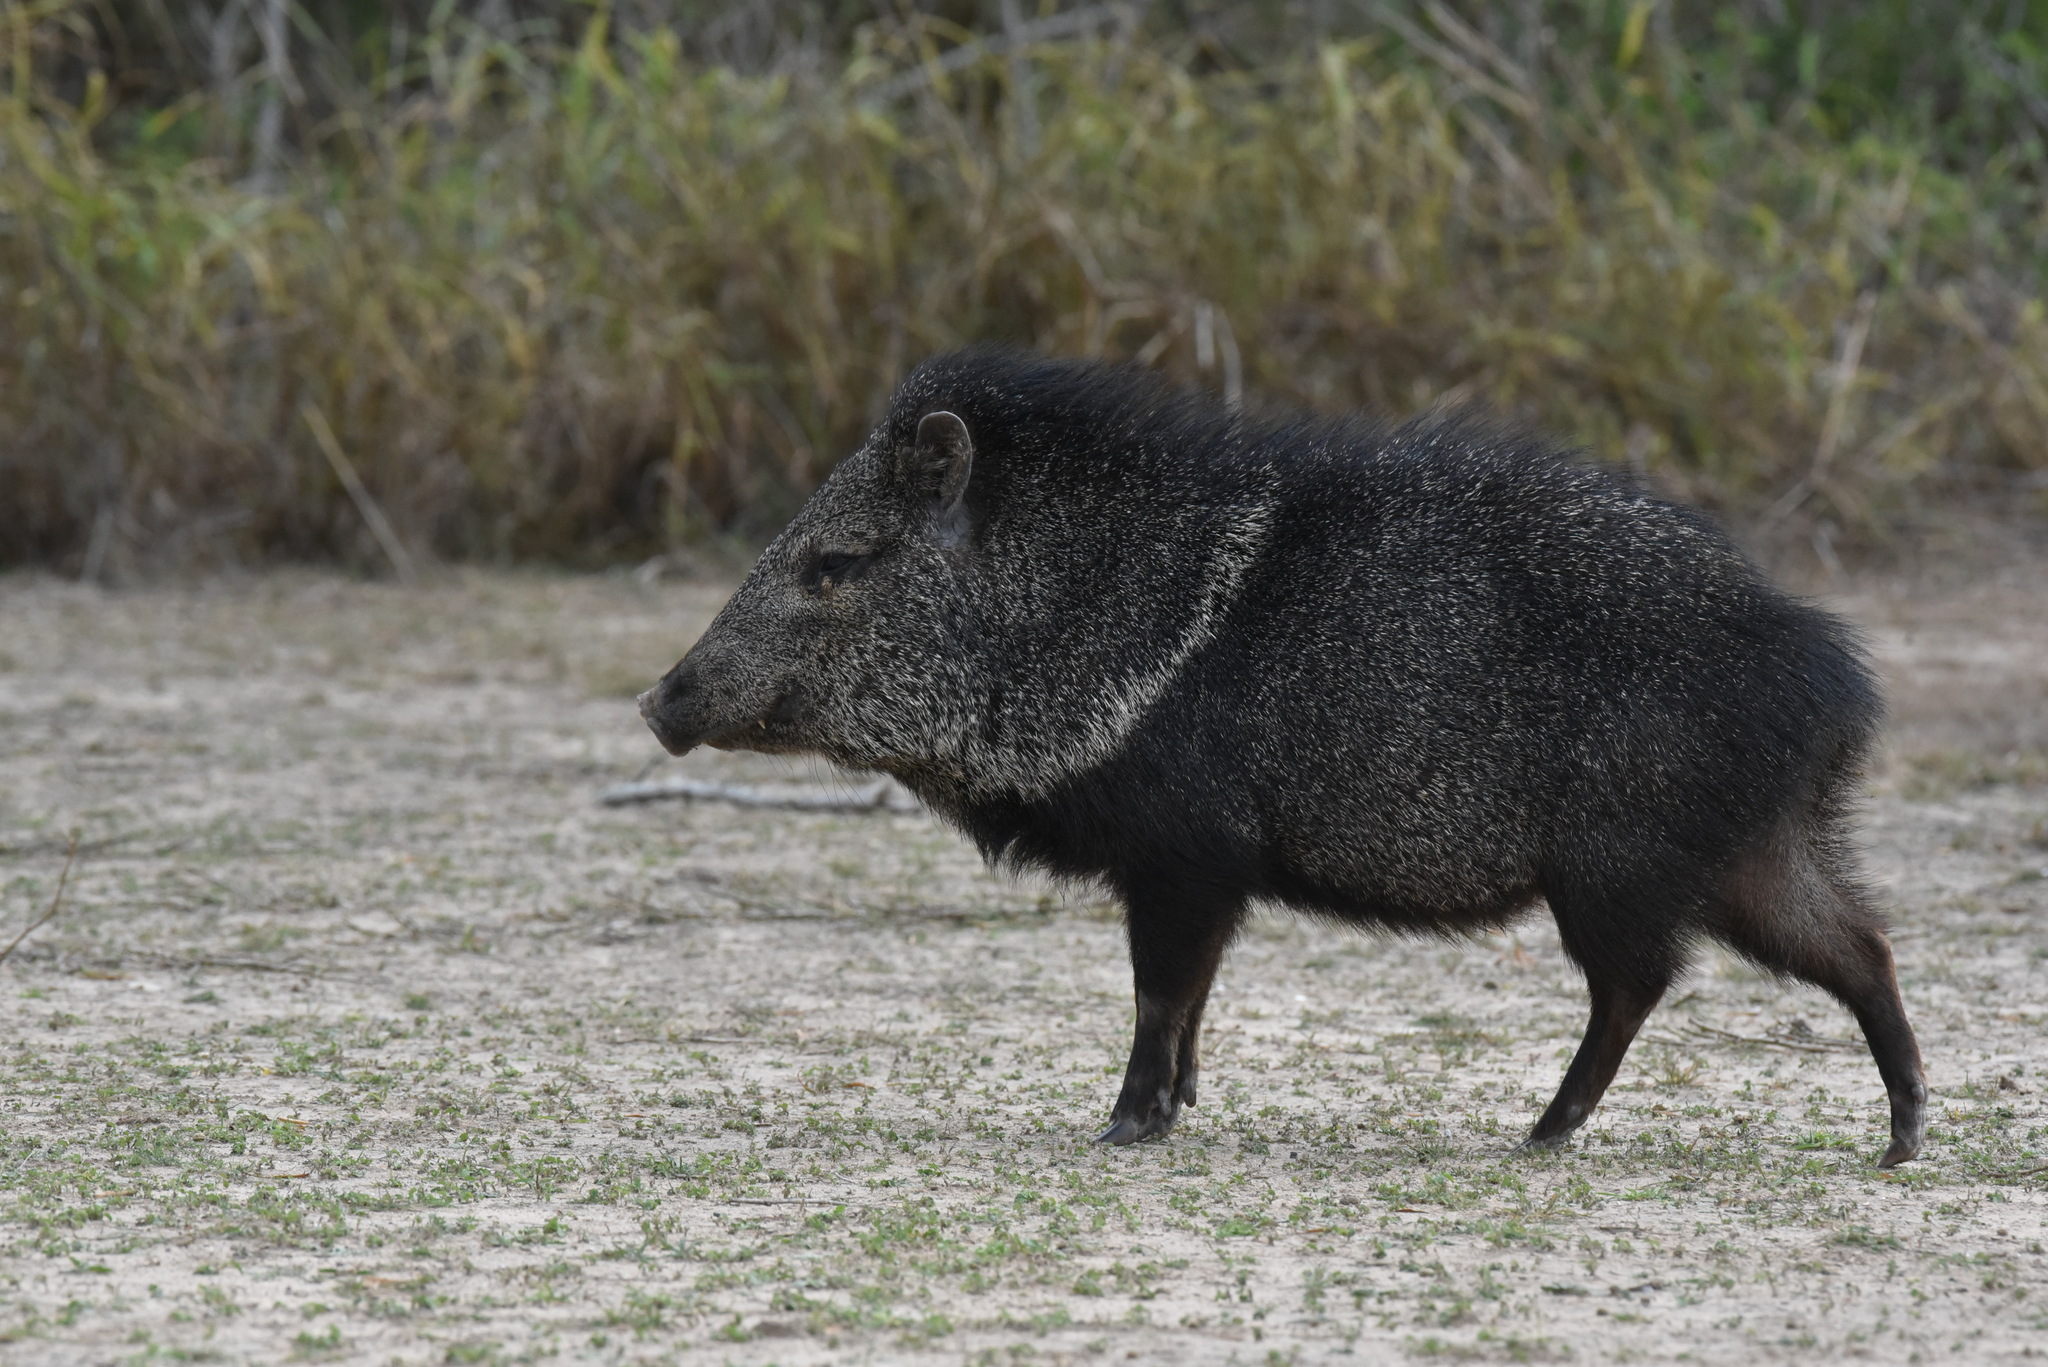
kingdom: Animalia
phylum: Chordata
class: Mammalia
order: Artiodactyla
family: Tayassuidae
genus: Pecari
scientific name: Pecari tajacu
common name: Collared peccary
